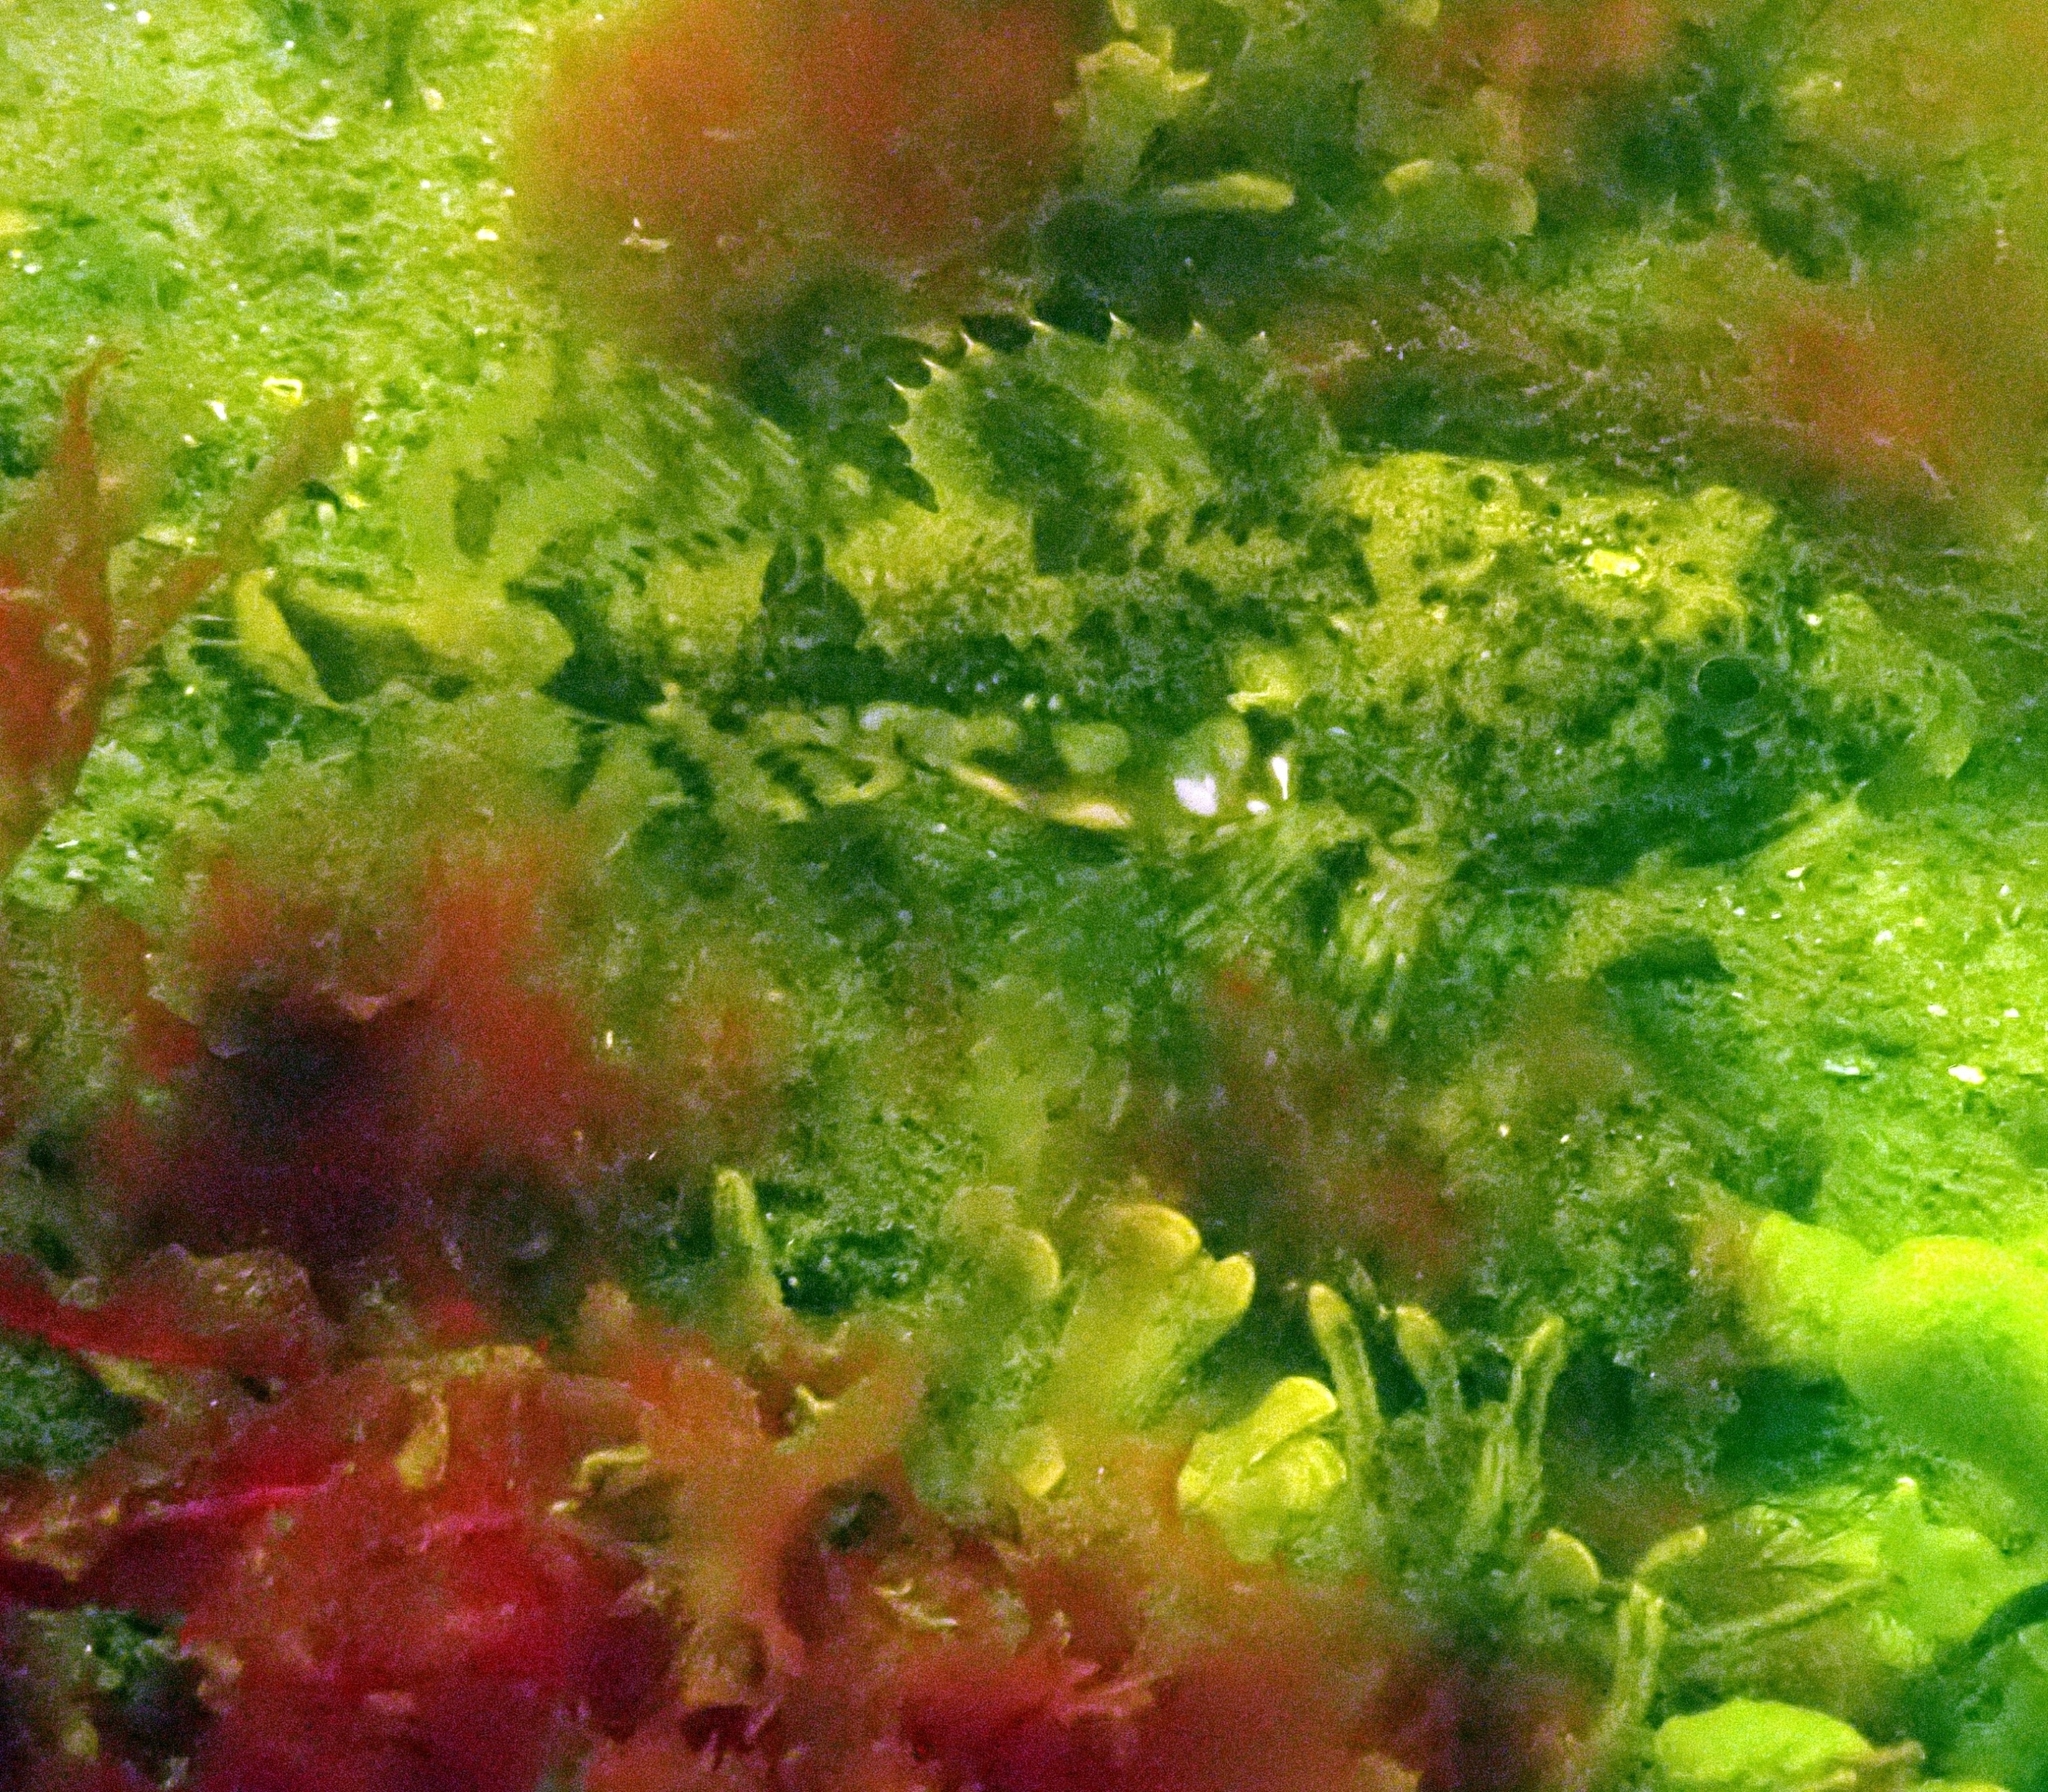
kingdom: Animalia
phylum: Chordata
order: Scorpaeniformes
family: Cottidae
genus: Myoxocephalus
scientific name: Myoxocephalus scorpius
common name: Shorthorn sculpin
